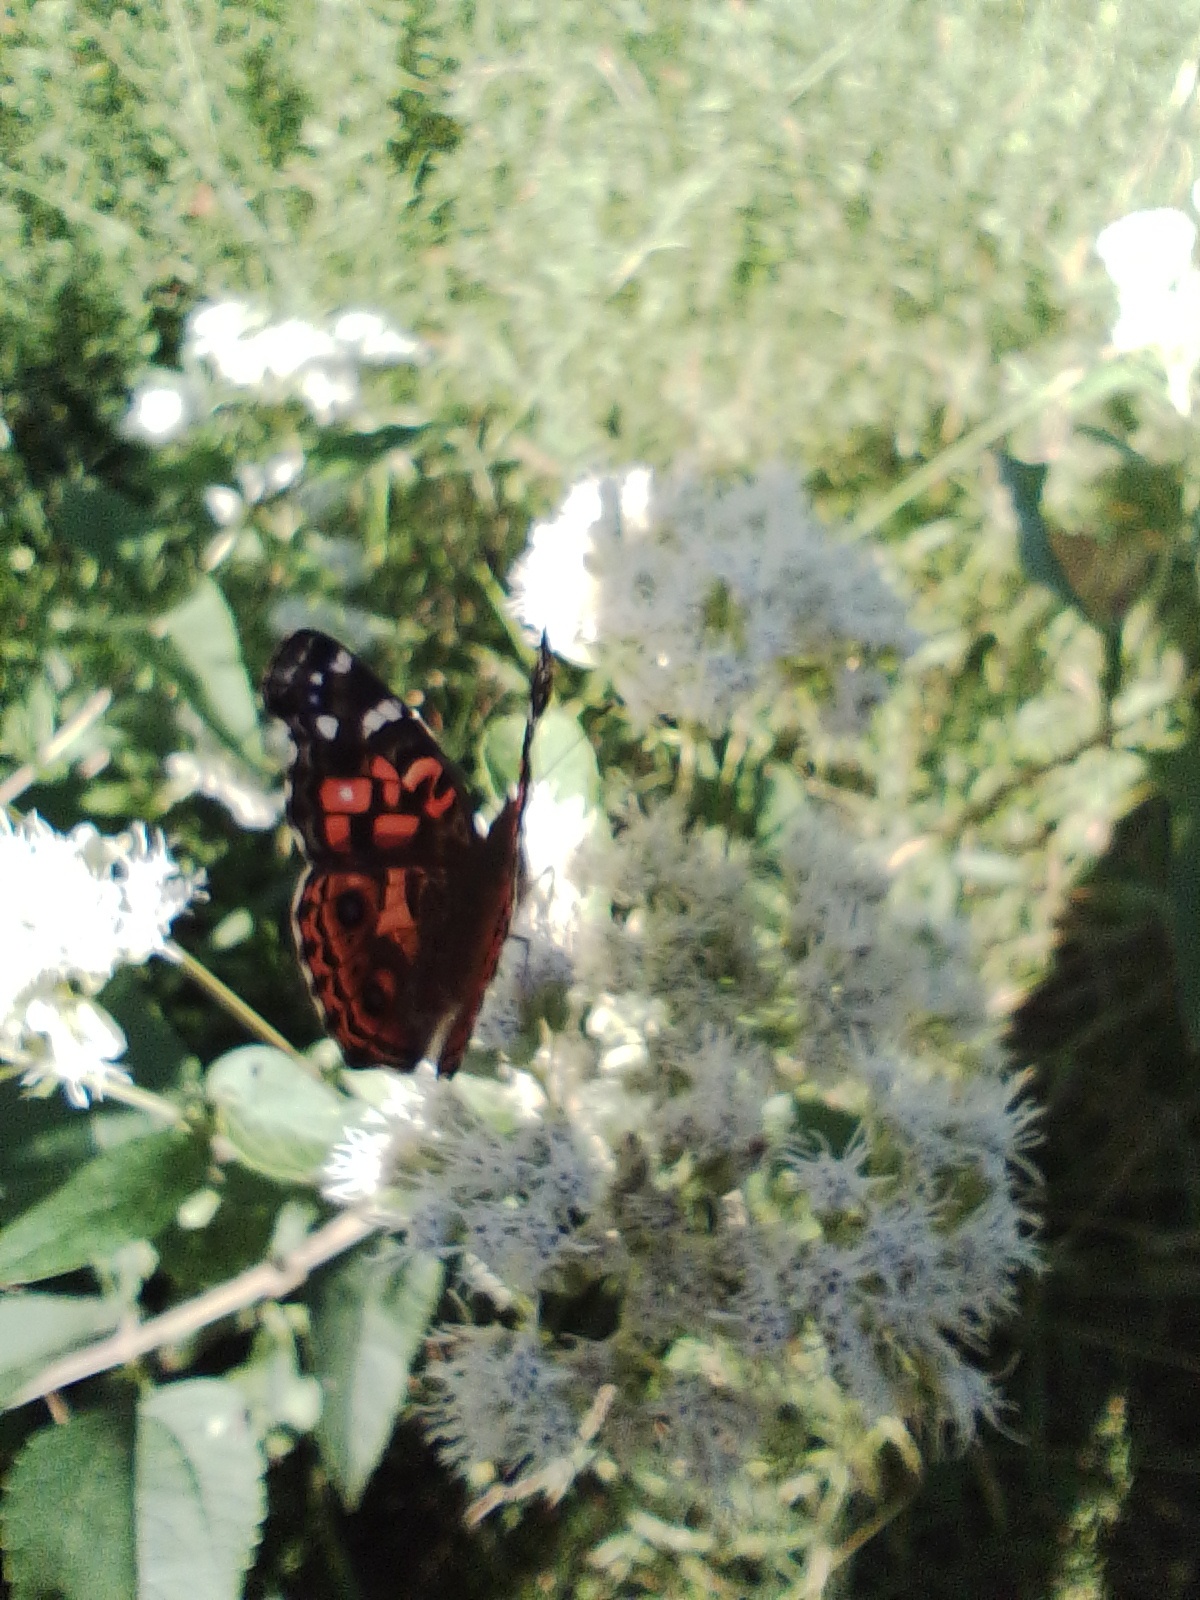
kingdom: Animalia
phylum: Arthropoda
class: Insecta
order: Lepidoptera
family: Nymphalidae
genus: Vanessa
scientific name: Vanessa braziliensis
